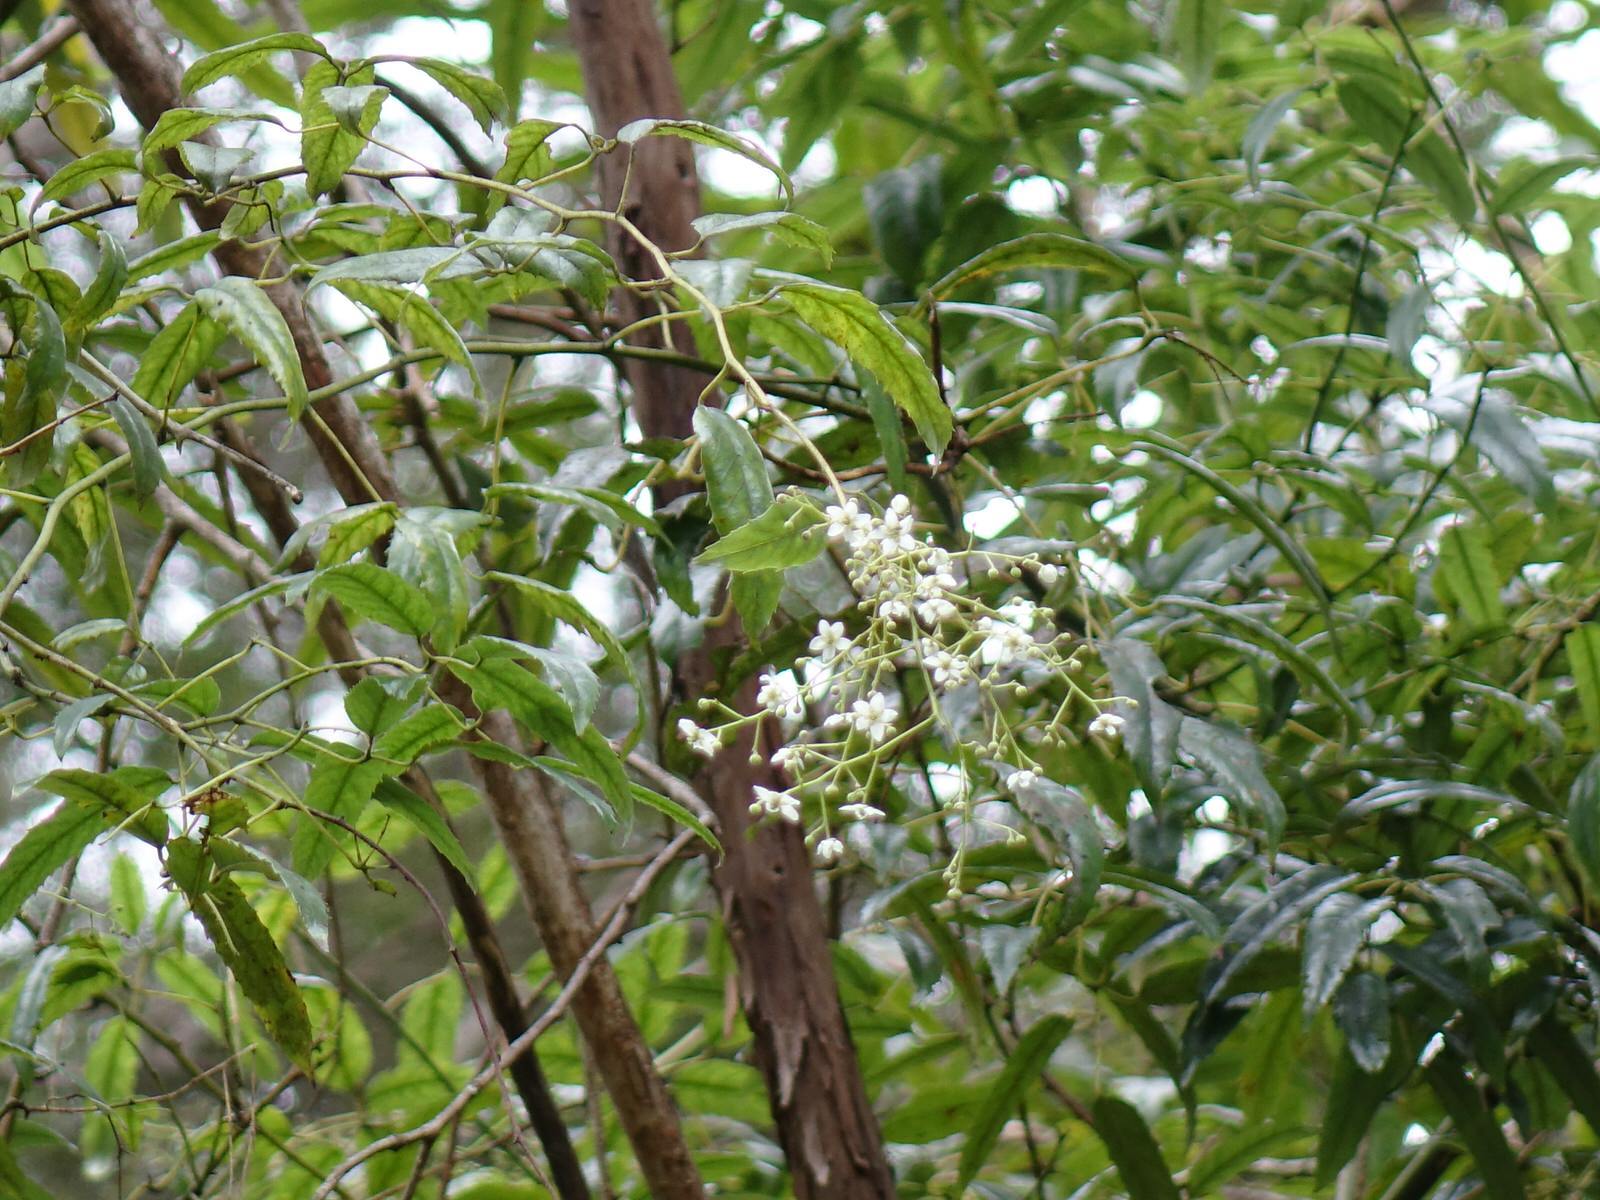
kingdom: Plantae
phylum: Tracheophyta
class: Magnoliopsida
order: Rosales
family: Rosaceae
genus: Rubus
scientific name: Rubus cissoides
